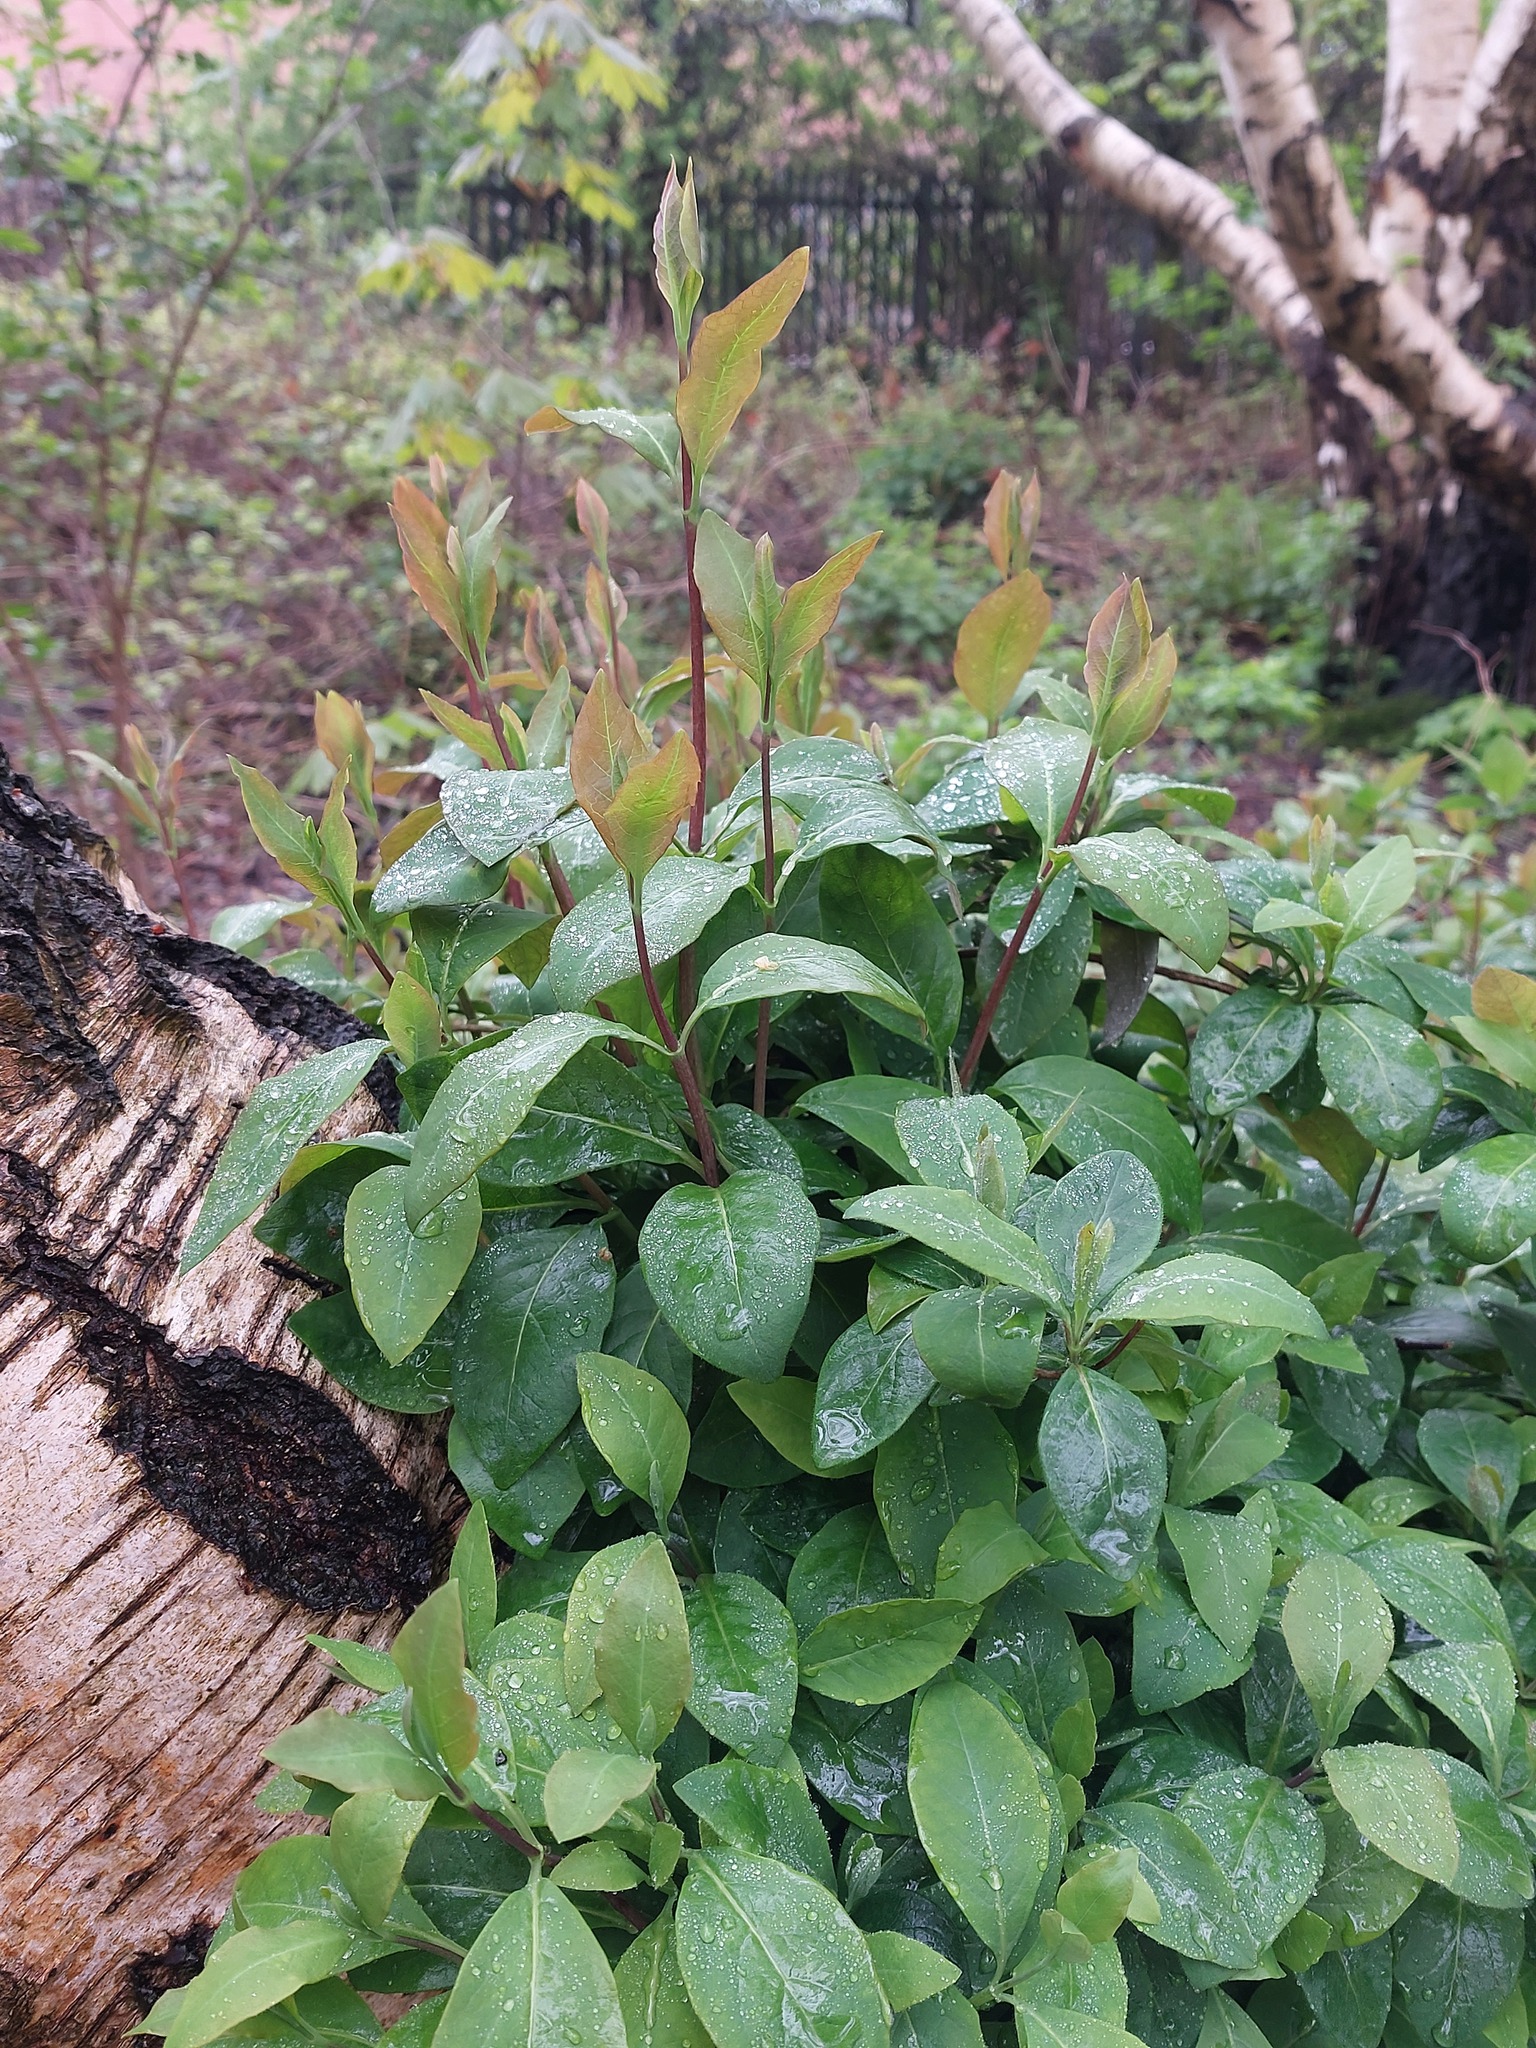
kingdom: Plantae
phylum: Tracheophyta
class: Magnoliopsida
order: Dipsacales
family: Caprifoliaceae
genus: Lonicera
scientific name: Lonicera periclymenum
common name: European honeysuckle
